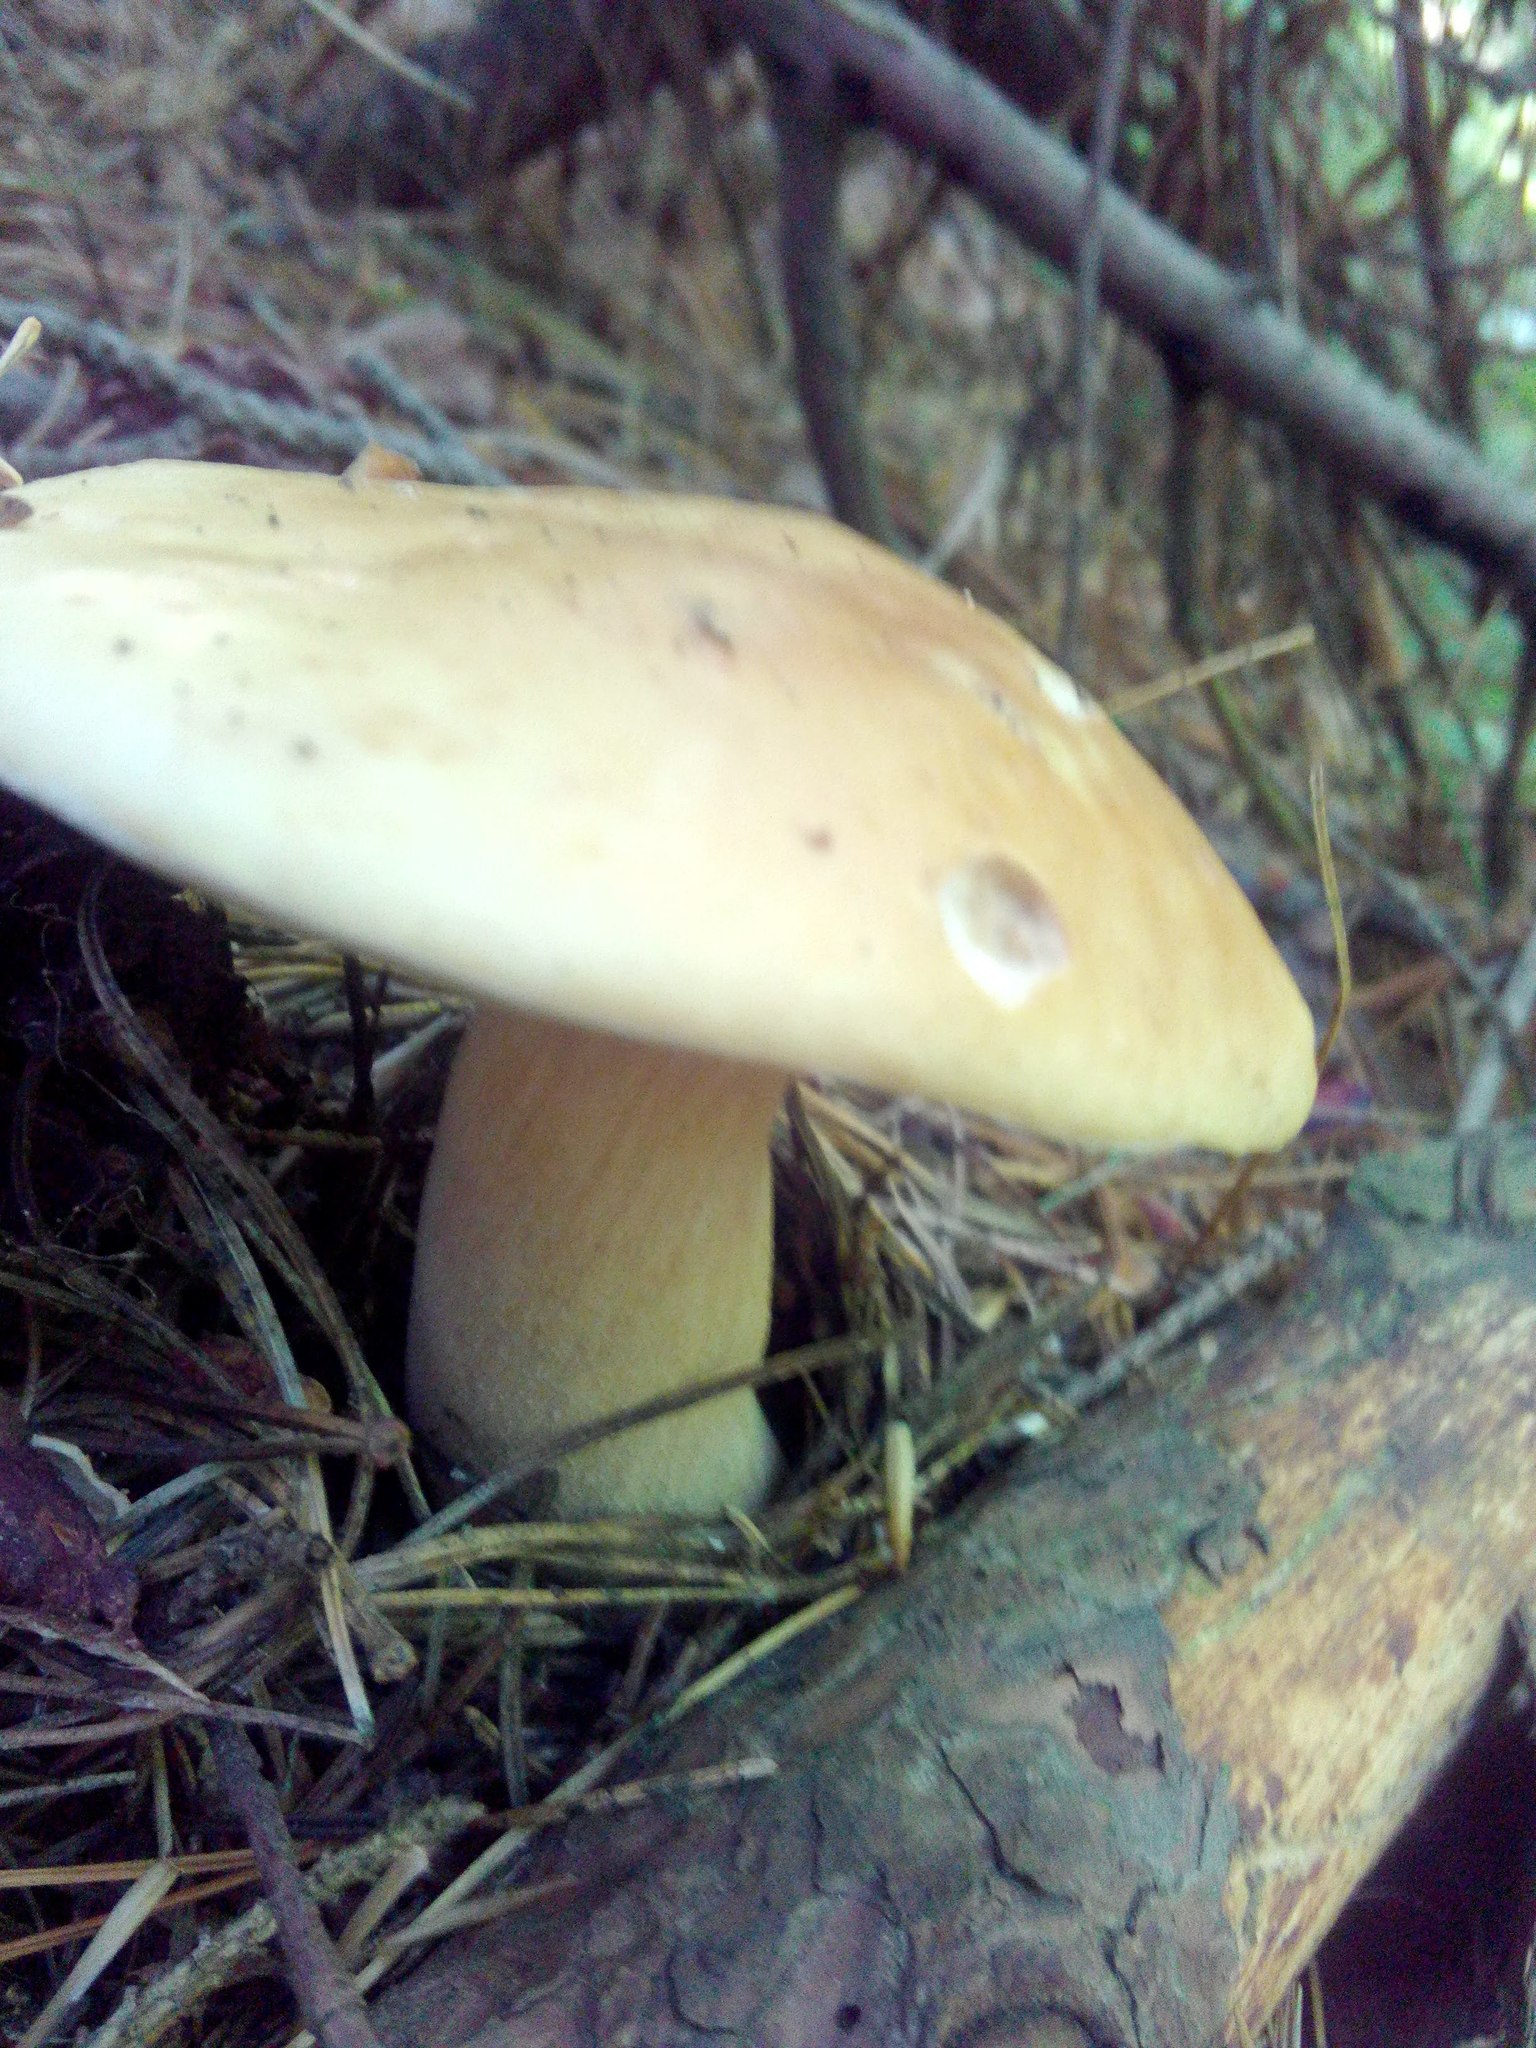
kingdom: Fungi
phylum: Basidiomycota
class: Agaricomycetes
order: Boletales
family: Boletaceae
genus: Boletus
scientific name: Boletus edulis
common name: Cep
